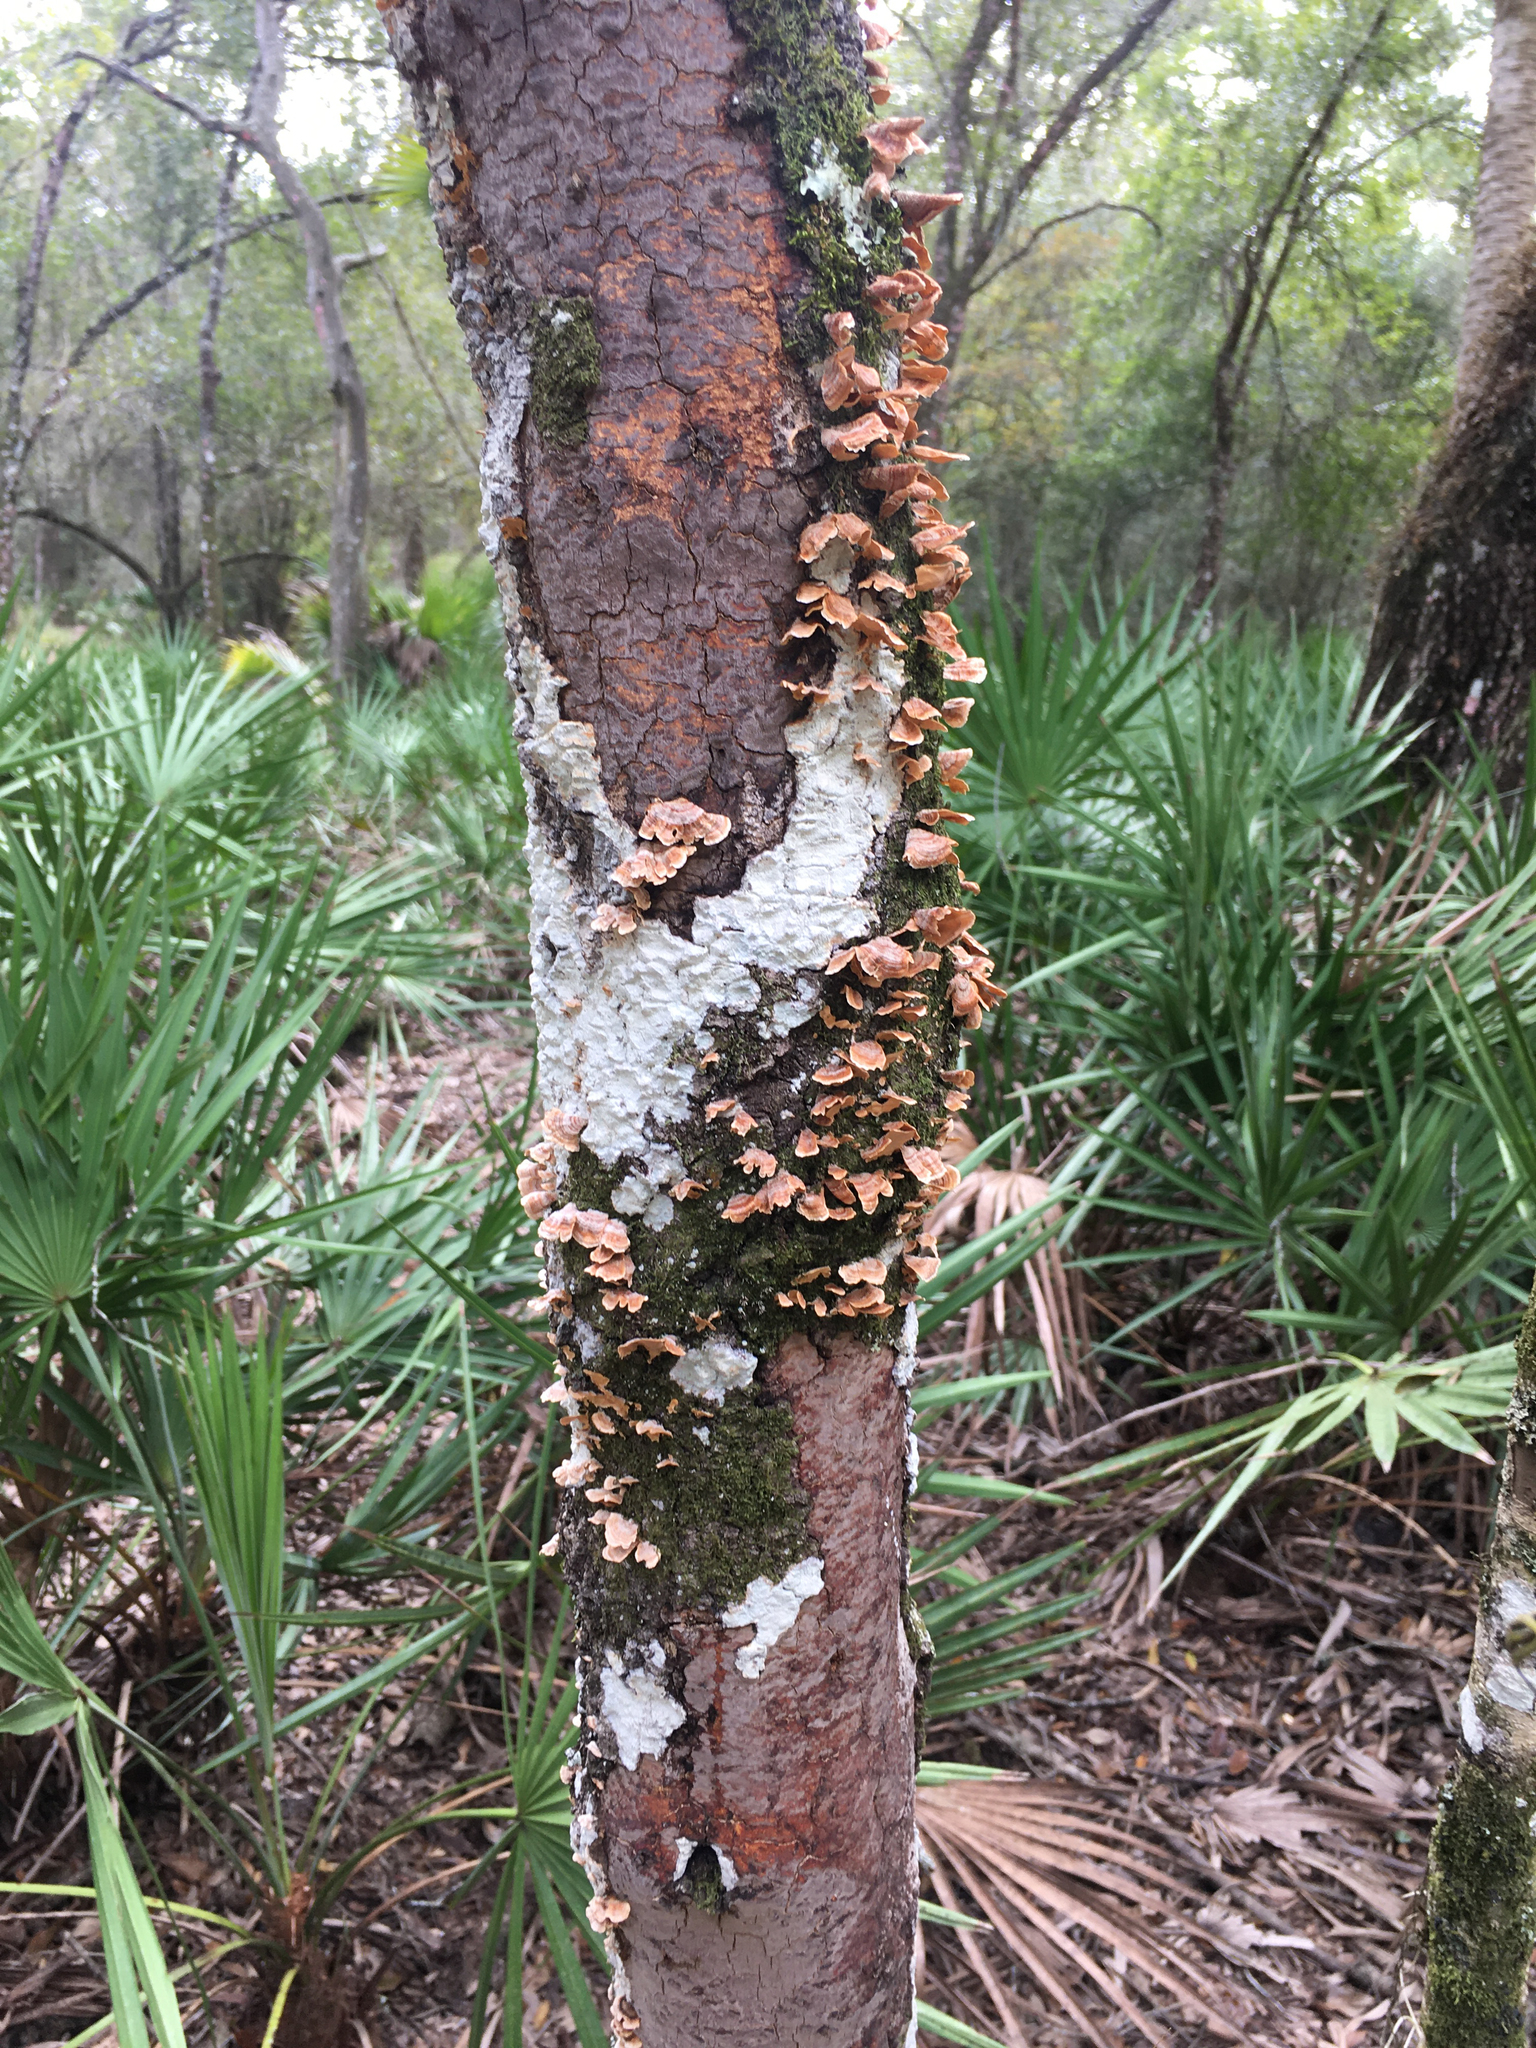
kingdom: Fungi
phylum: Basidiomycota
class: Agaricomycetes
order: Russulales
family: Stereaceae
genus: Stereum
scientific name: Stereum complicatum
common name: Crowded parchment
